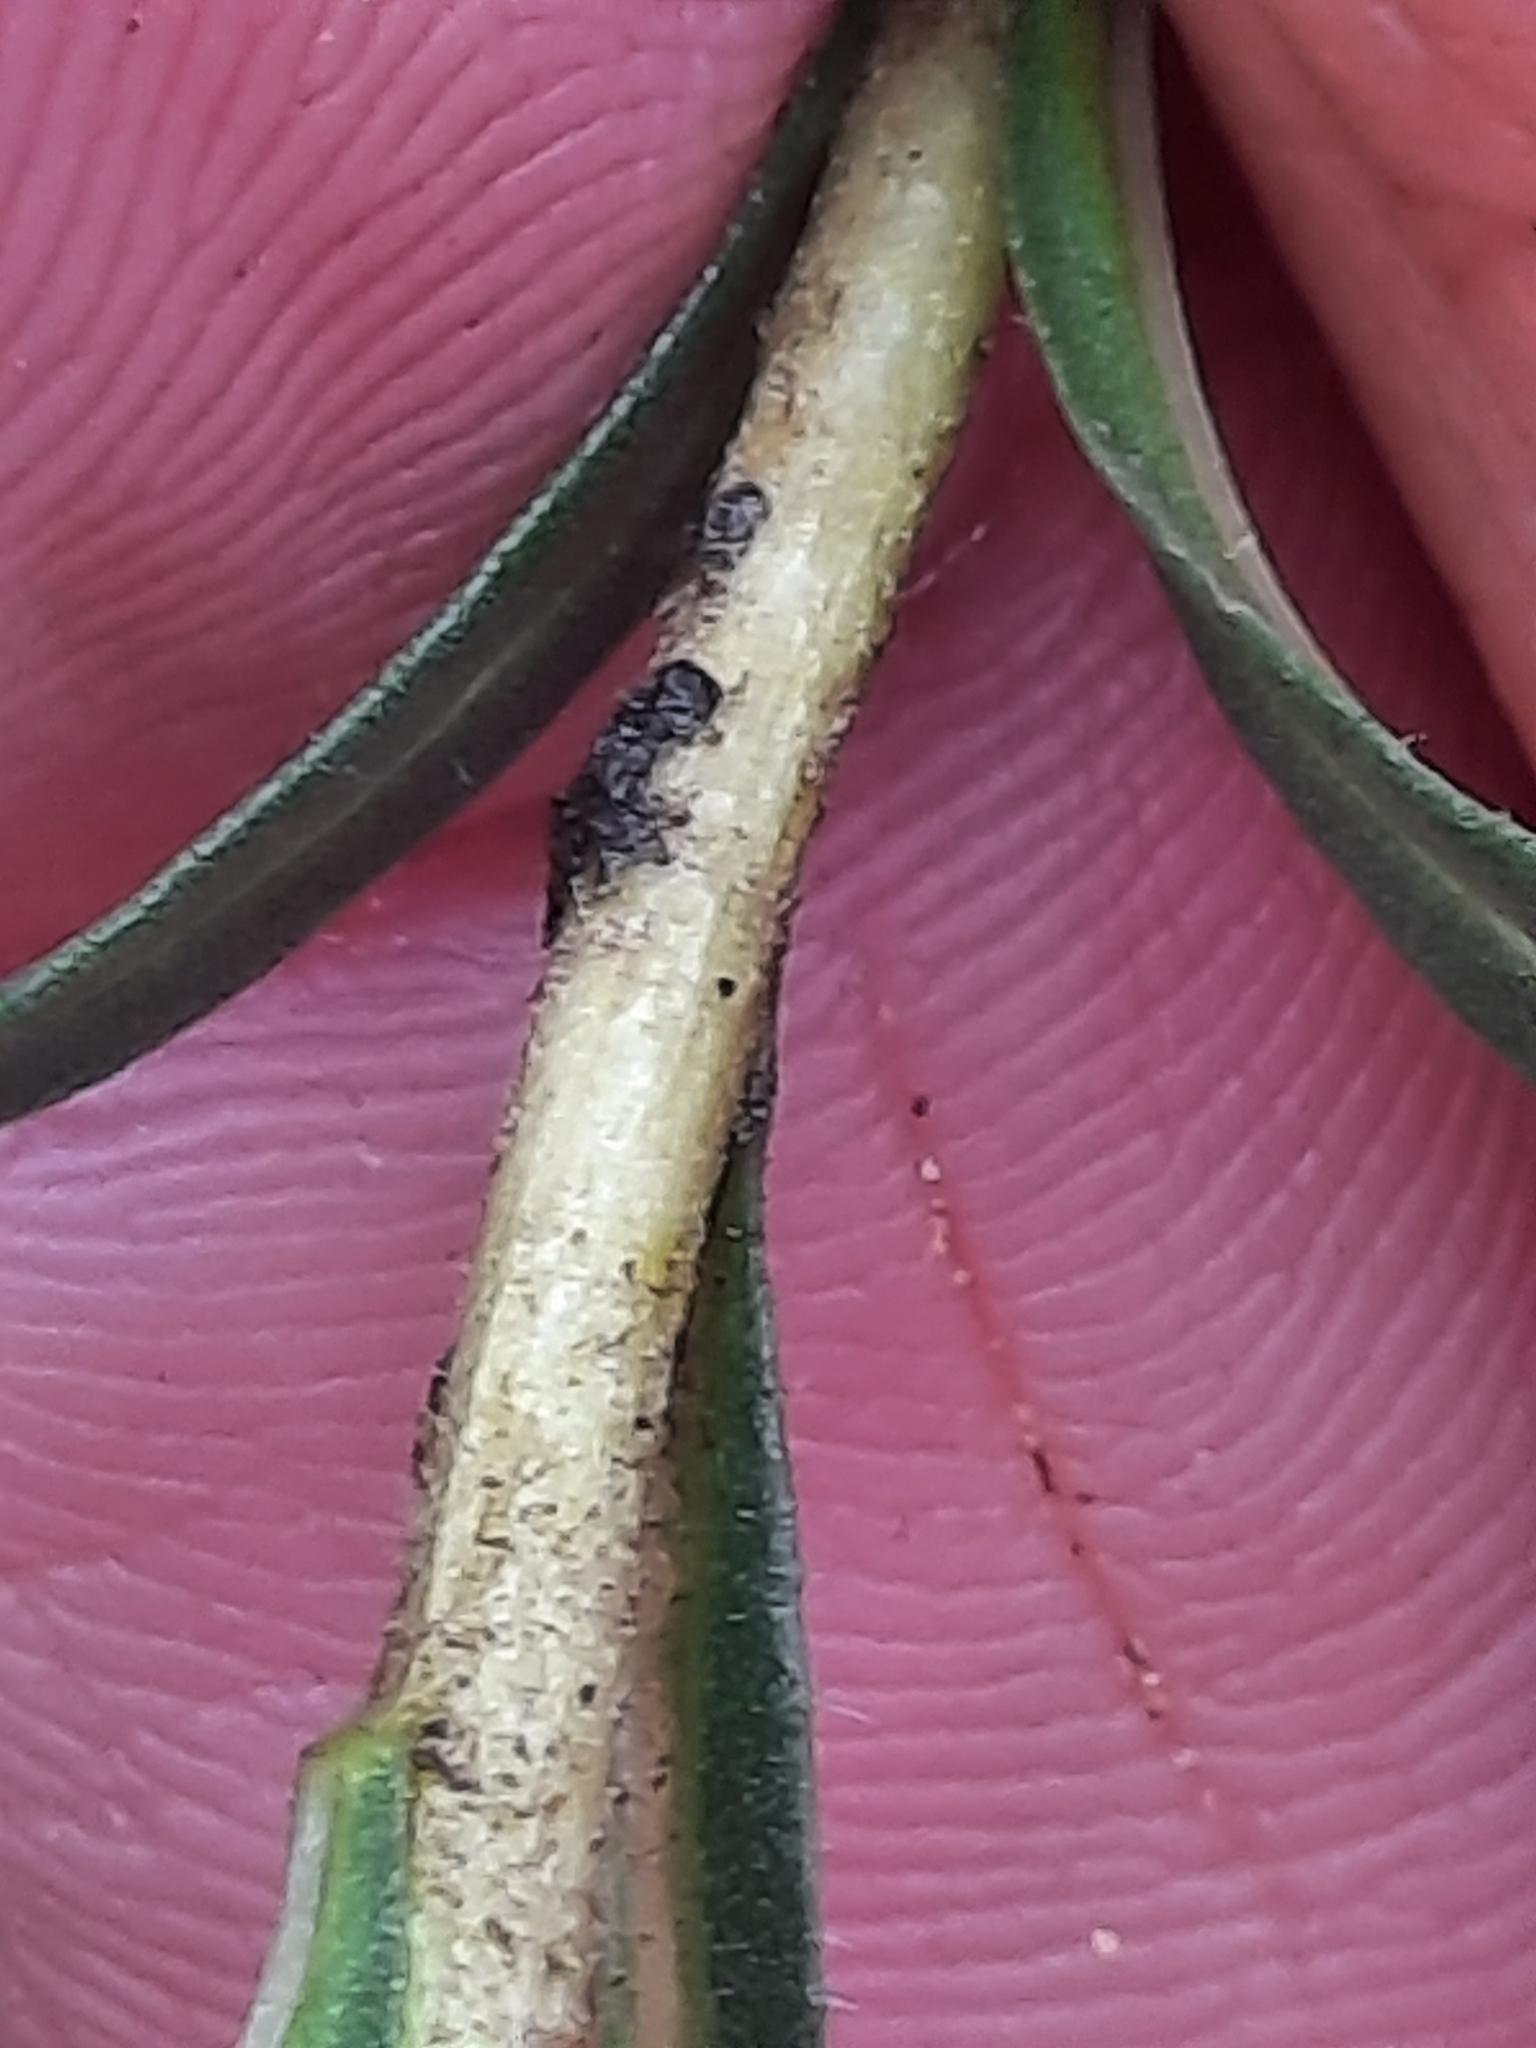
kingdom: Plantae
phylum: Tracheophyta
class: Magnoliopsida
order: Asterales
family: Asteraceae
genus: Ionactis
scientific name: Ionactis linariifolia
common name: Flax-leaf aster
